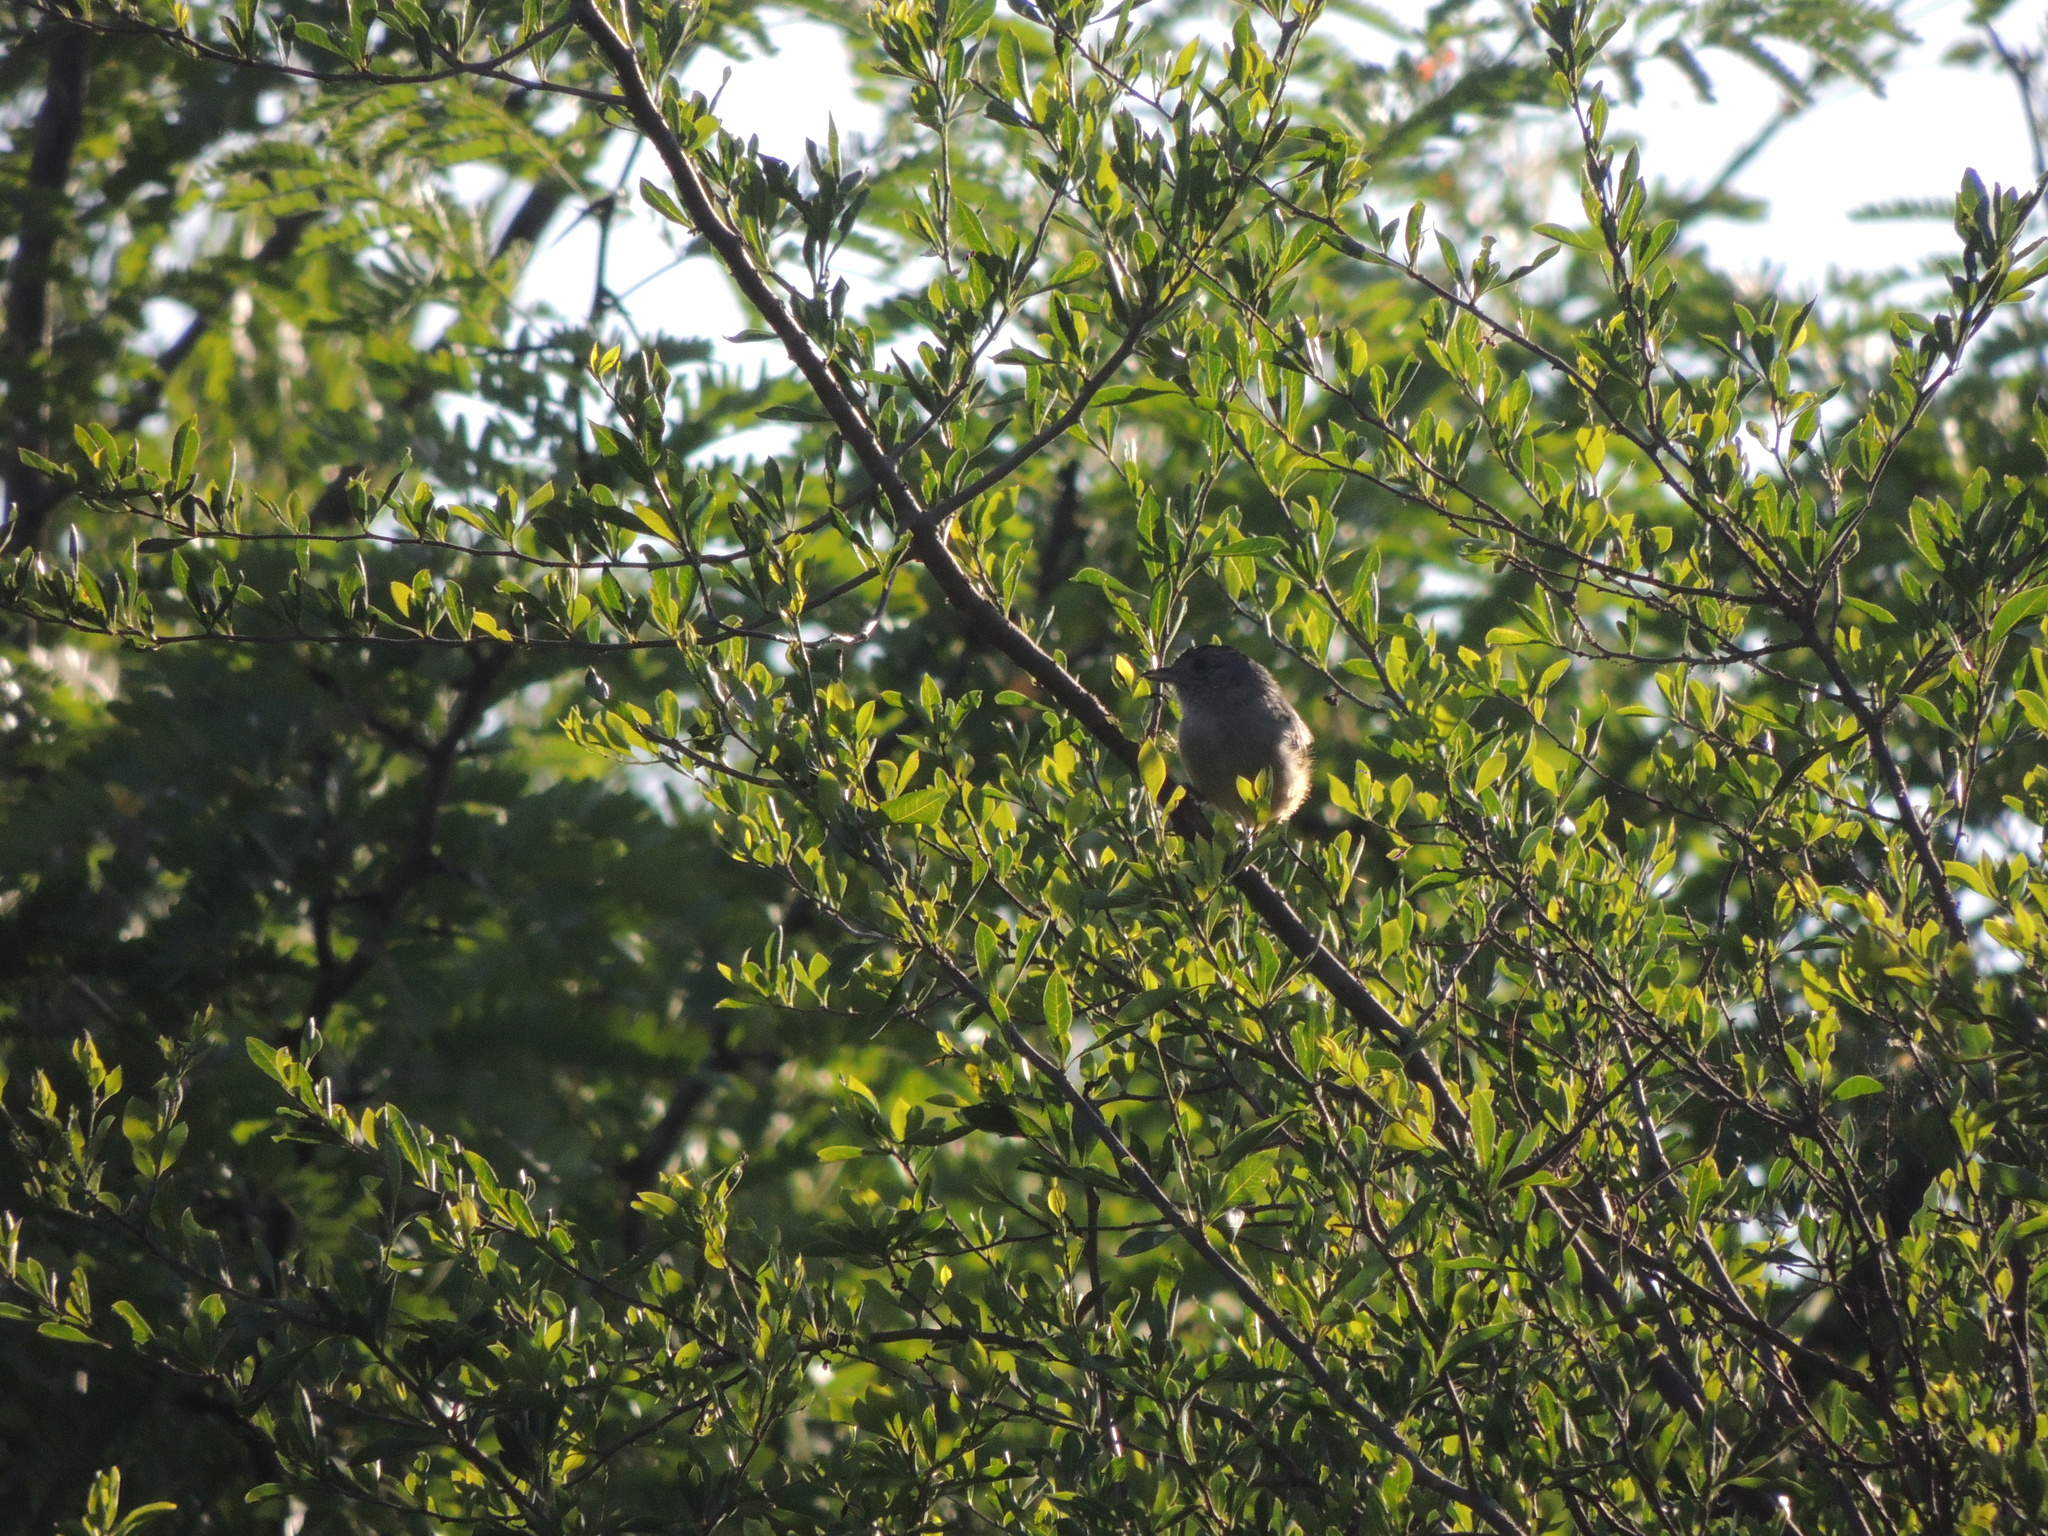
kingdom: Animalia
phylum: Chordata
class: Aves
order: Passeriformes
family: Thamnophilidae
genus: Thamnophilus
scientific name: Thamnophilus caerulescens
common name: Variable antshrike
